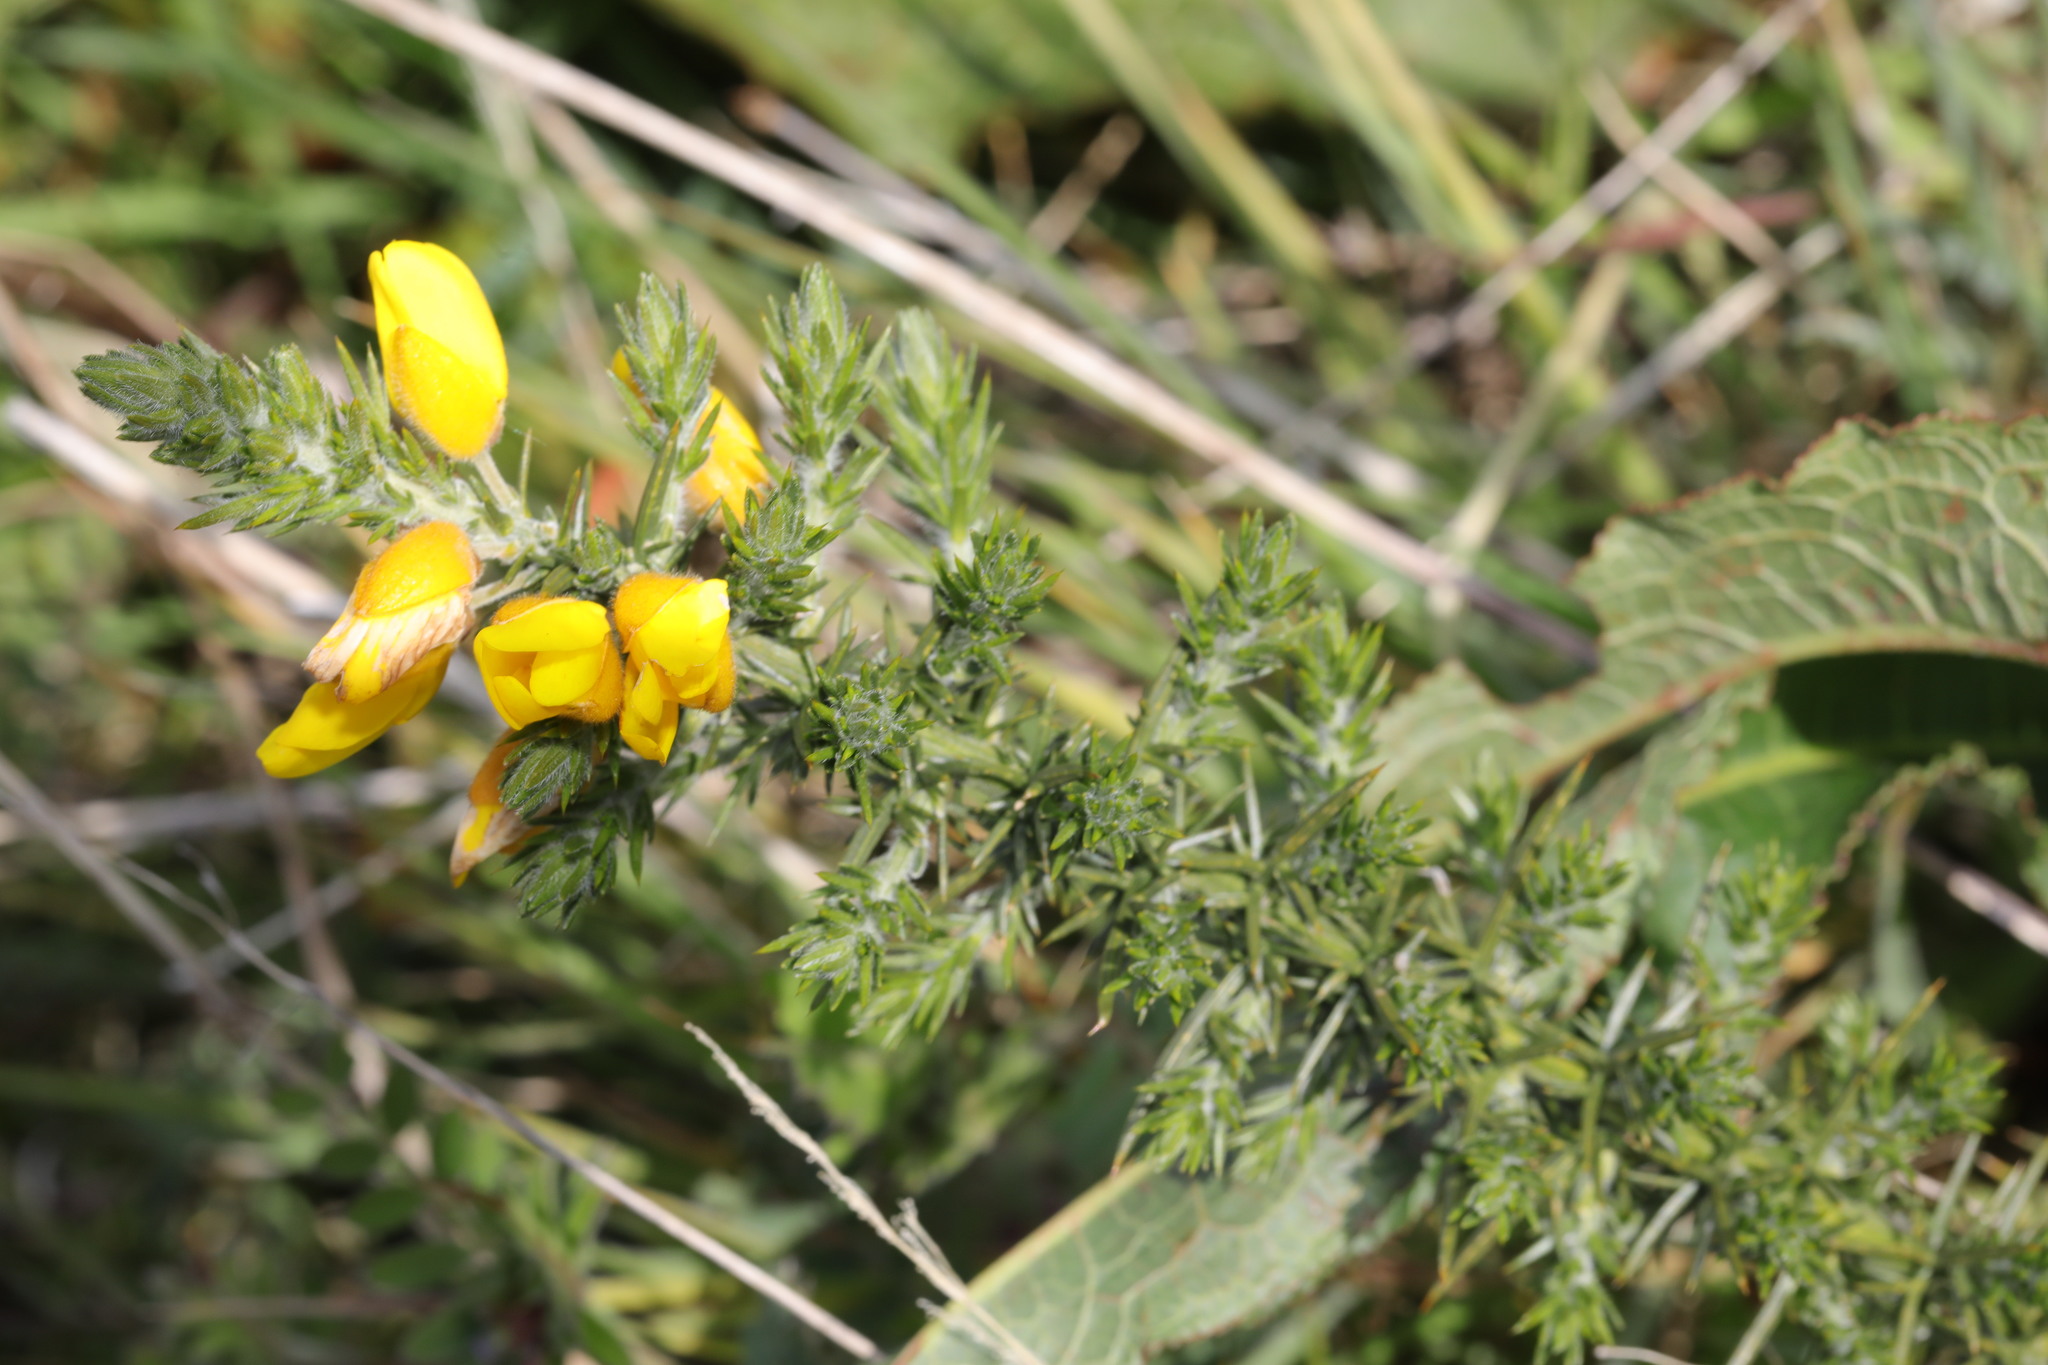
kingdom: Plantae
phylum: Tracheophyta
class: Magnoliopsida
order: Fabales
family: Fabaceae
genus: Ulex
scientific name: Ulex europaeus
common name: Common gorse
